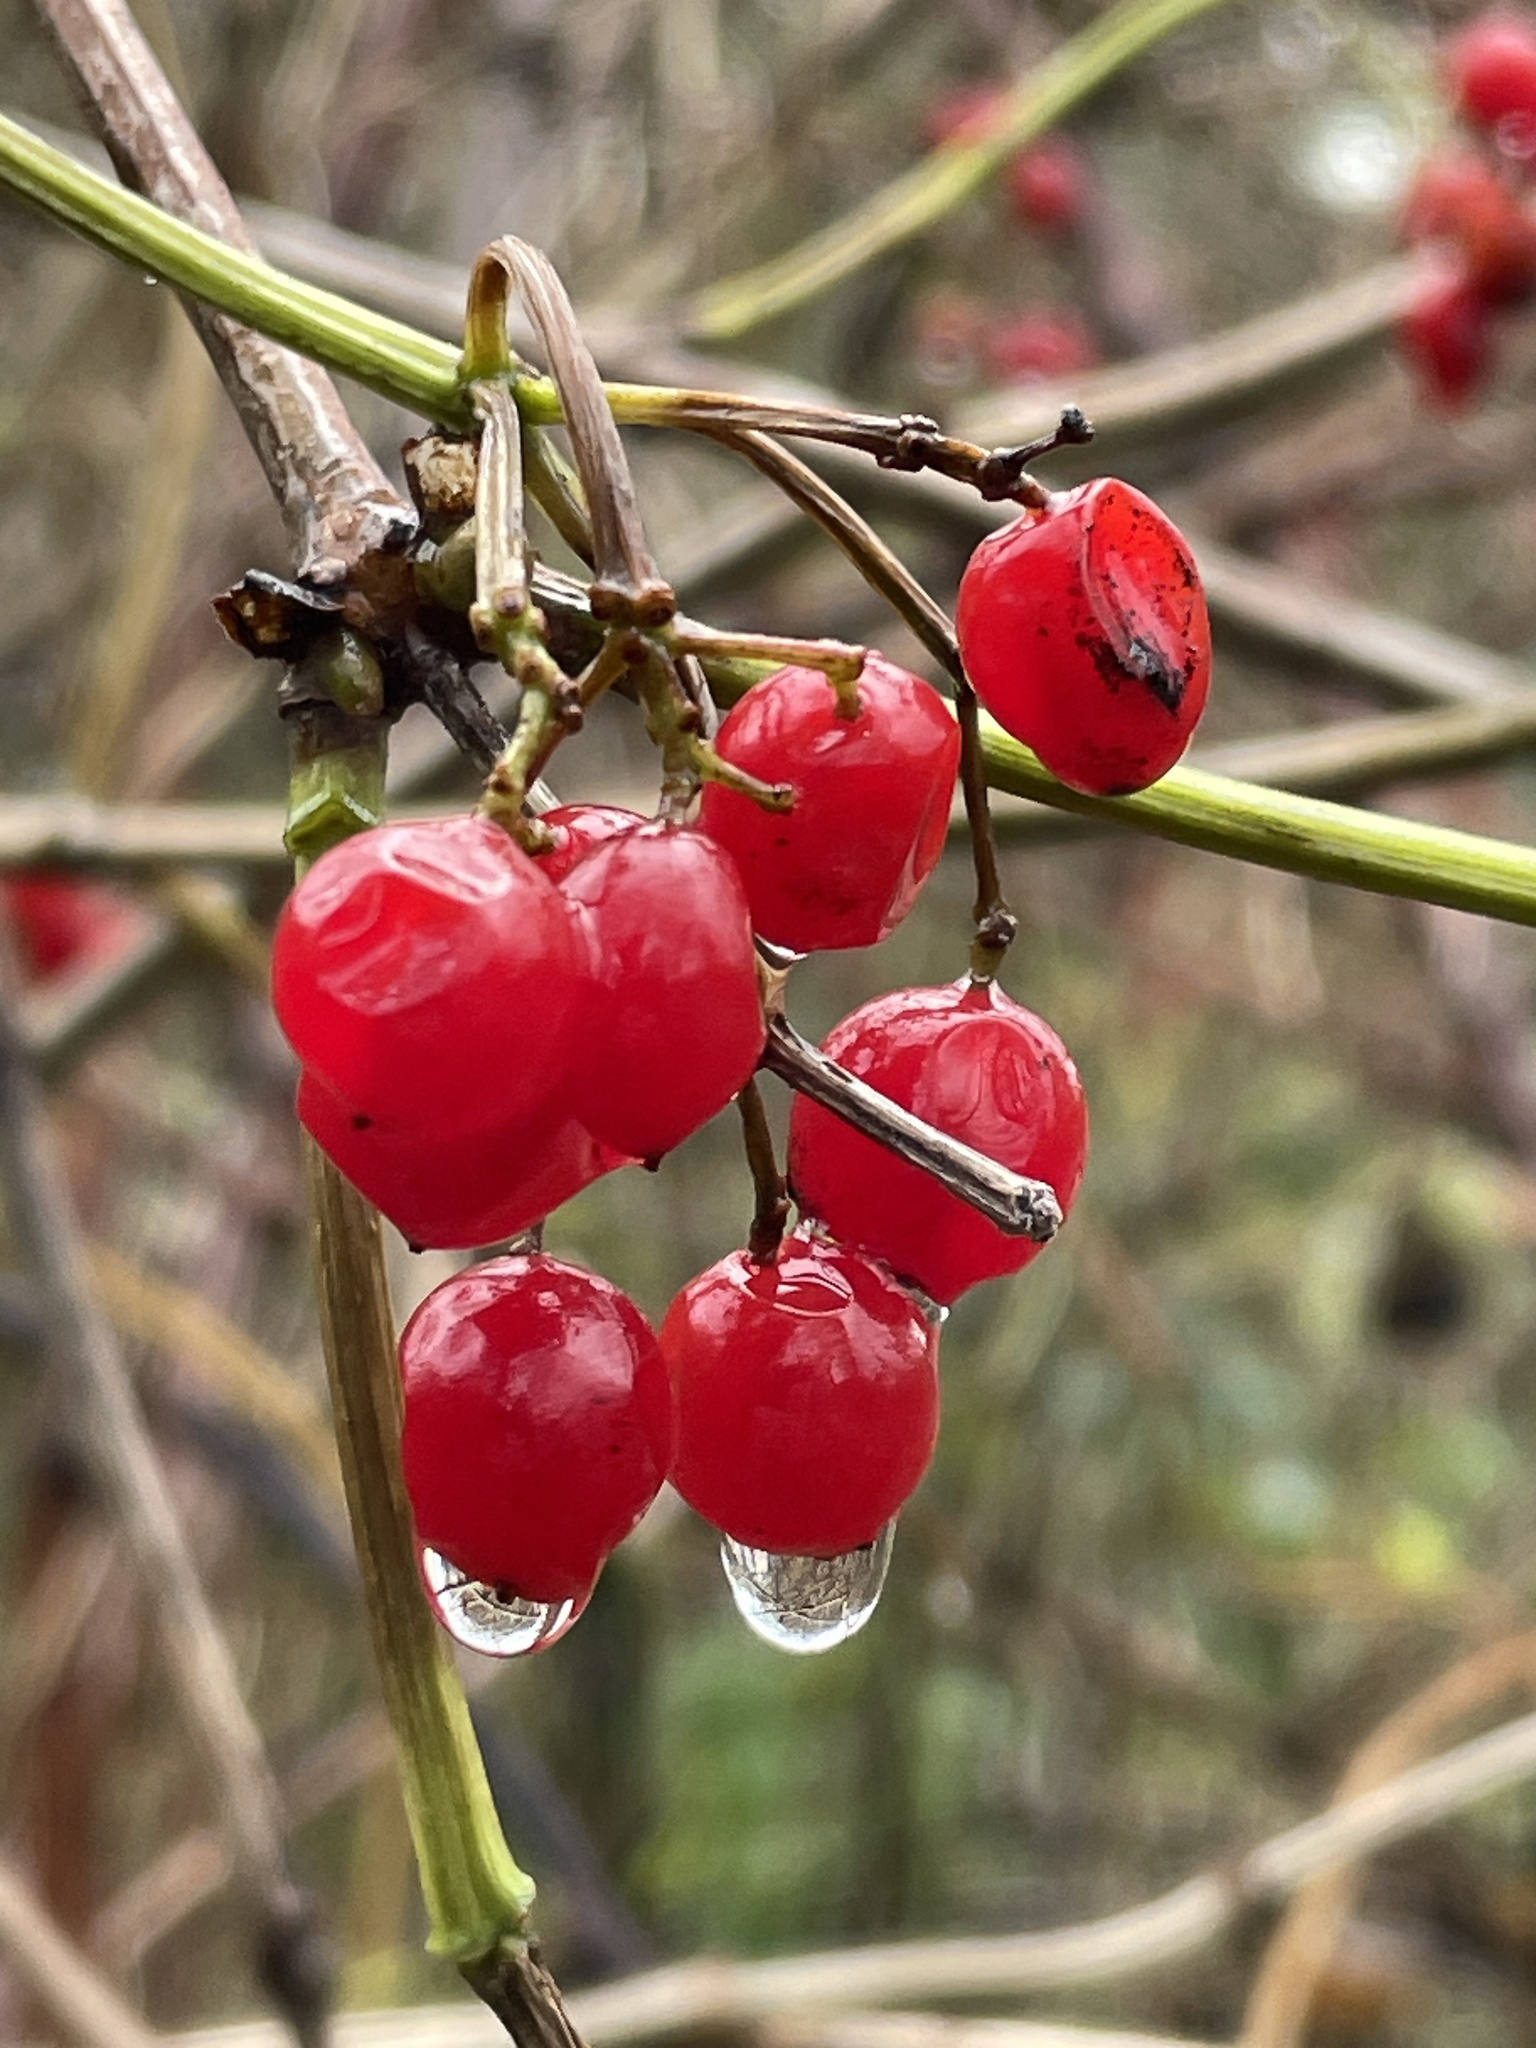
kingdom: Plantae
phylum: Tracheophyta
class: Magnoliopsida
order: Dipsacales
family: Viburnaceae
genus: Viburnum
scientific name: Viburnum opulus
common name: Guelder-rose
